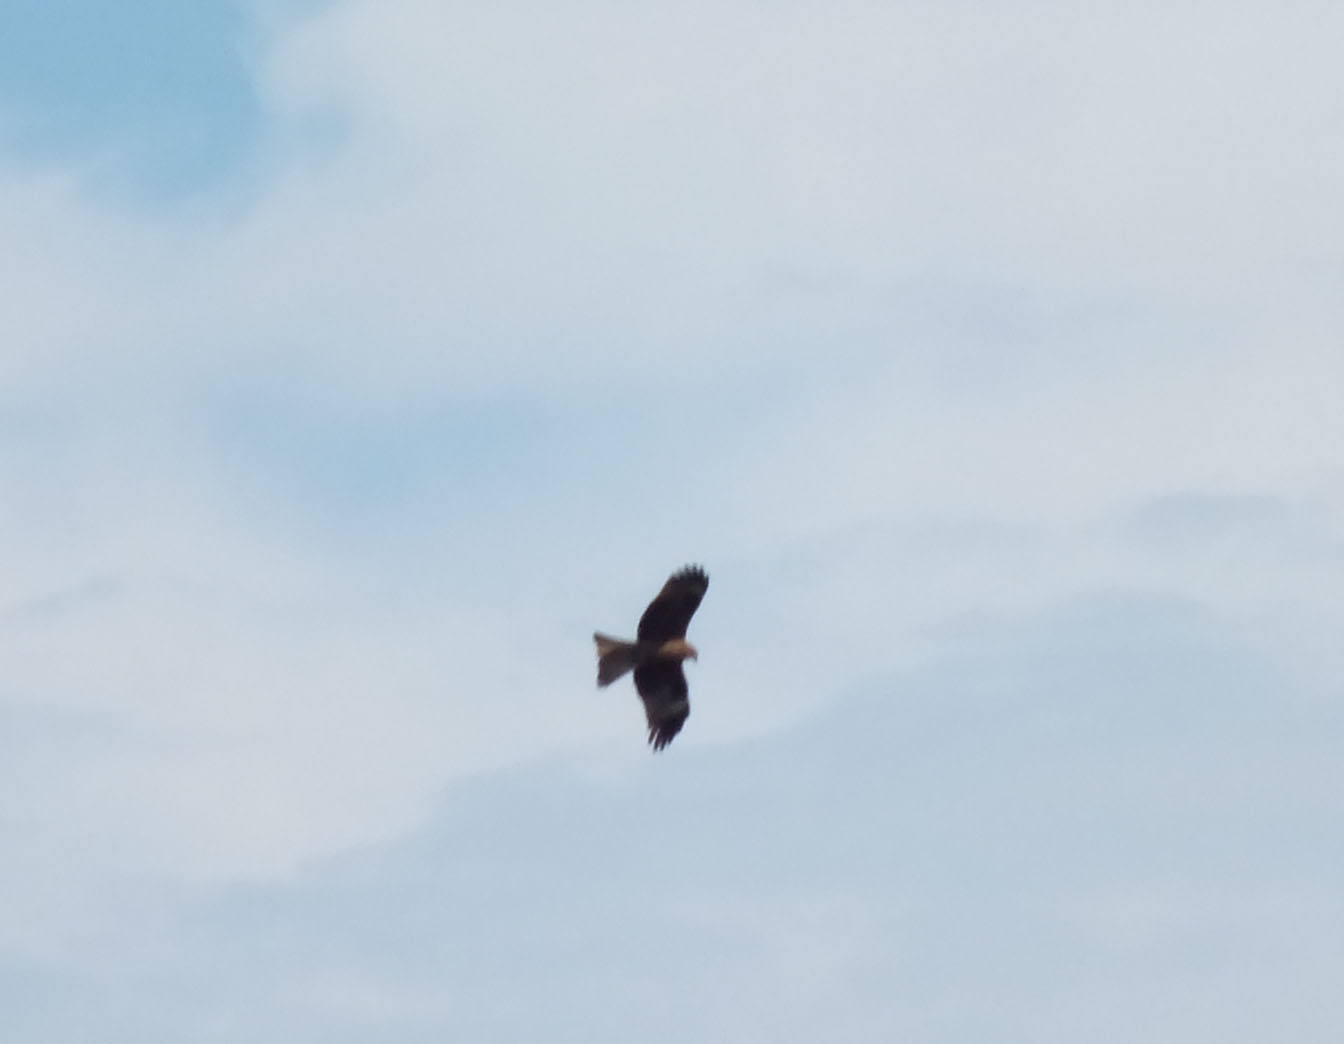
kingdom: Animalia
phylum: Chordata
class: Aves
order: Accipitriformes
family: Accipitridae
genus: Milvus
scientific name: Milvus migrans
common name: Black kite
